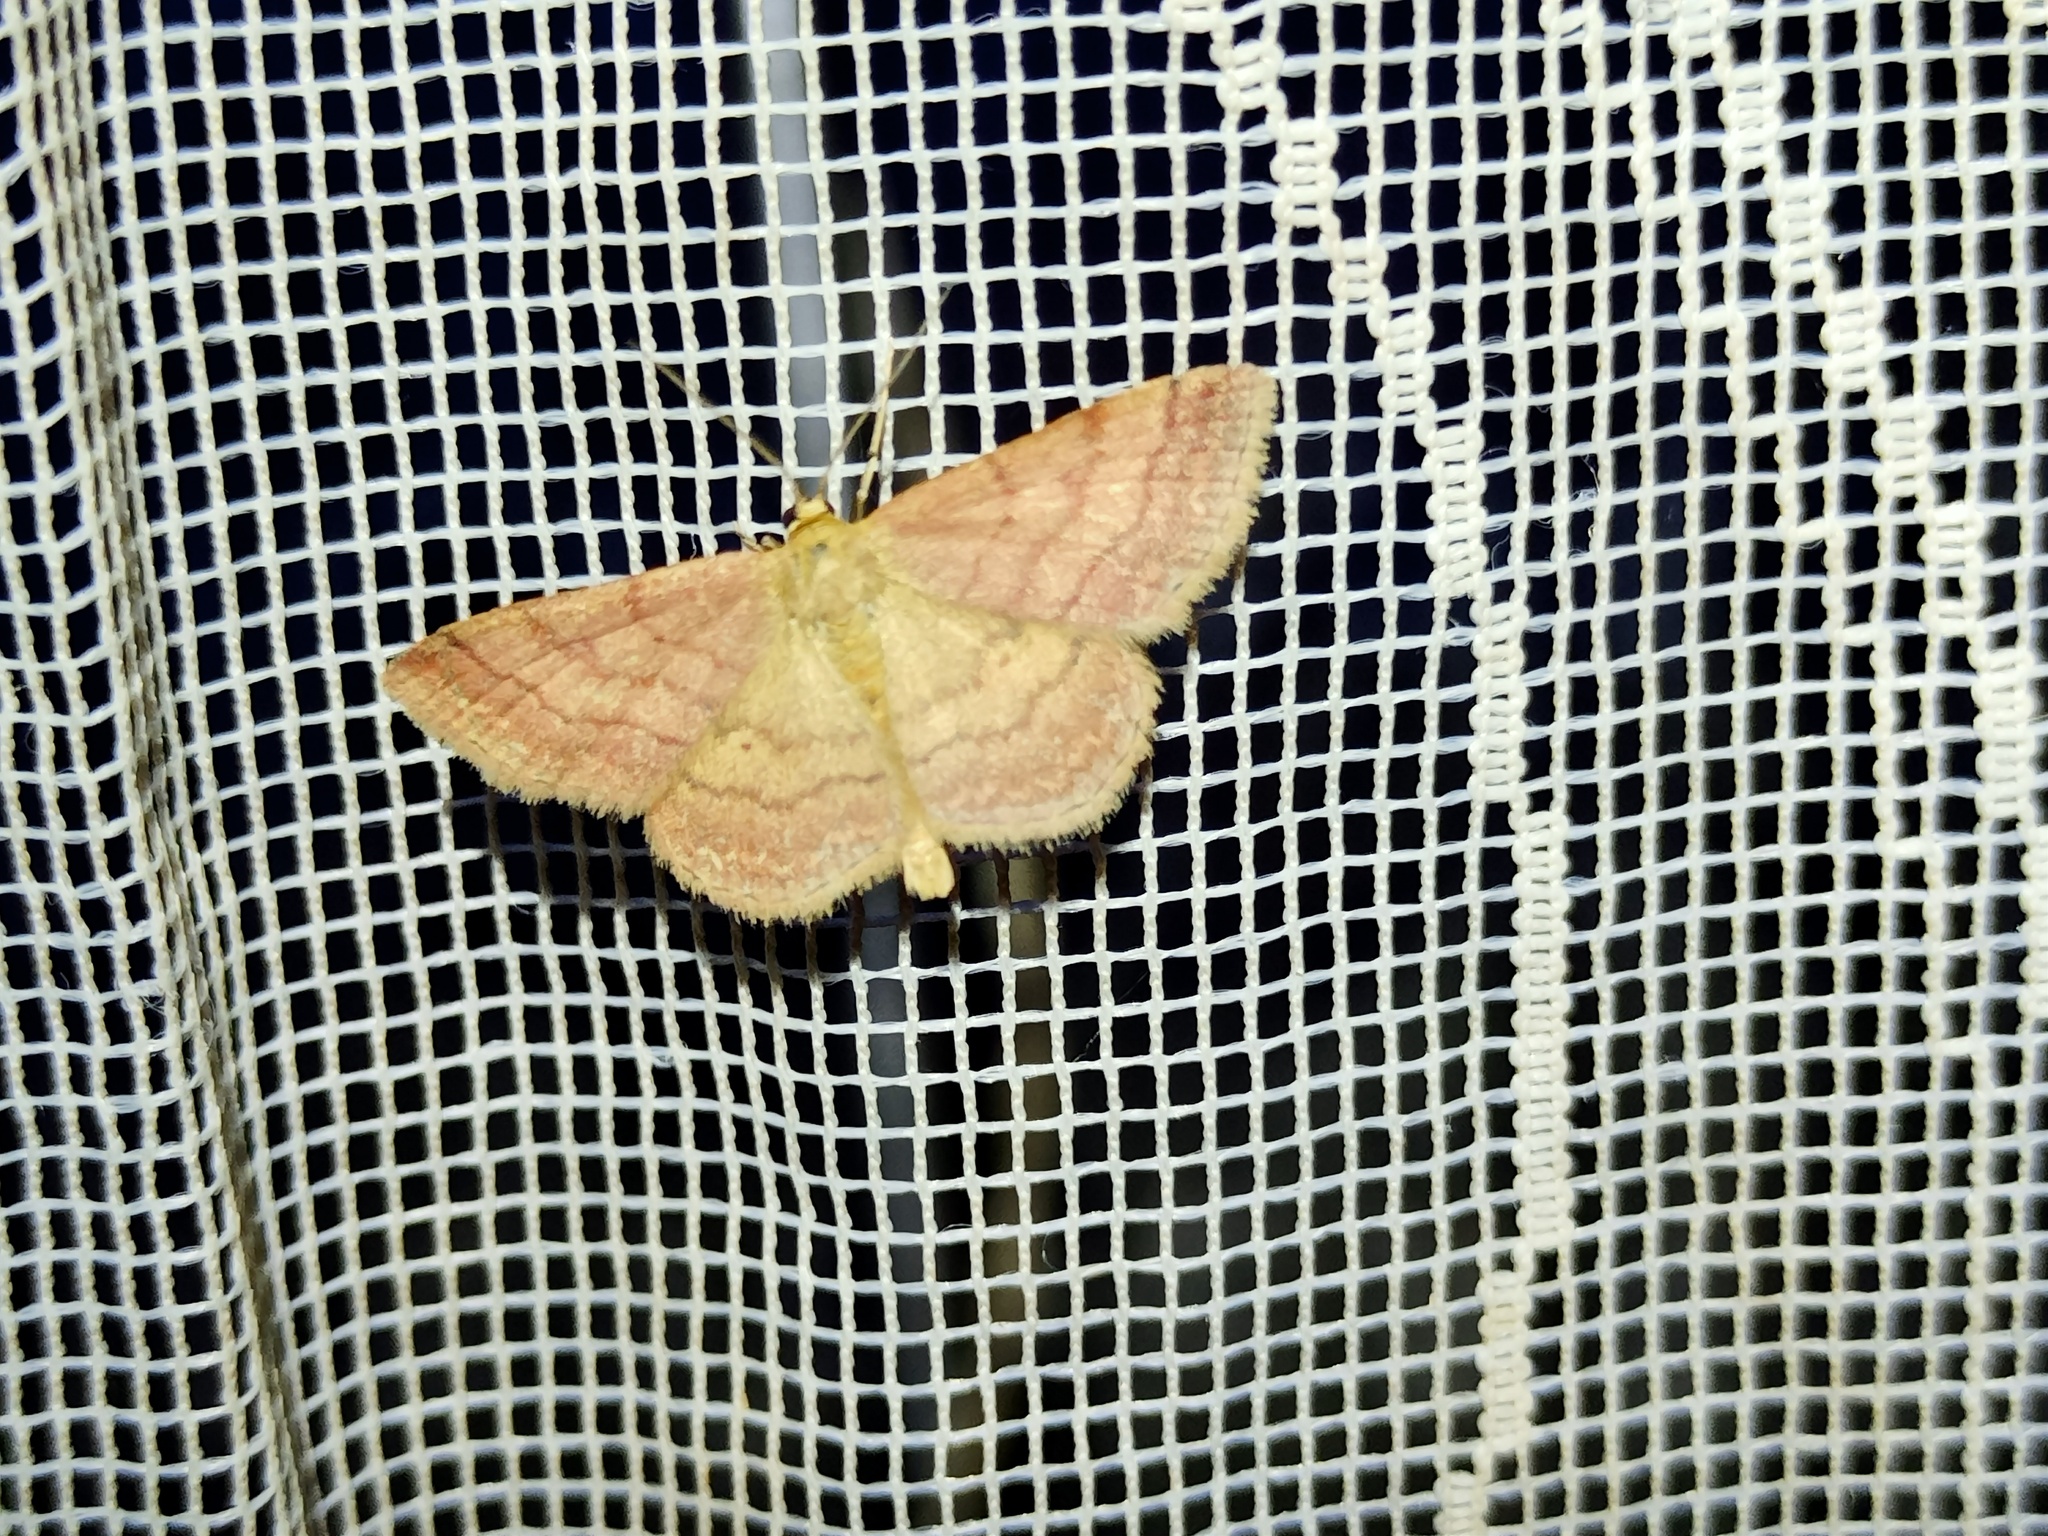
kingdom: Animalia
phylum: Arthropoda
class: Insecta
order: Lepidoptera
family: Geometridae
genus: Scopula
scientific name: Scopula rubiginata
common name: Tawny wave
